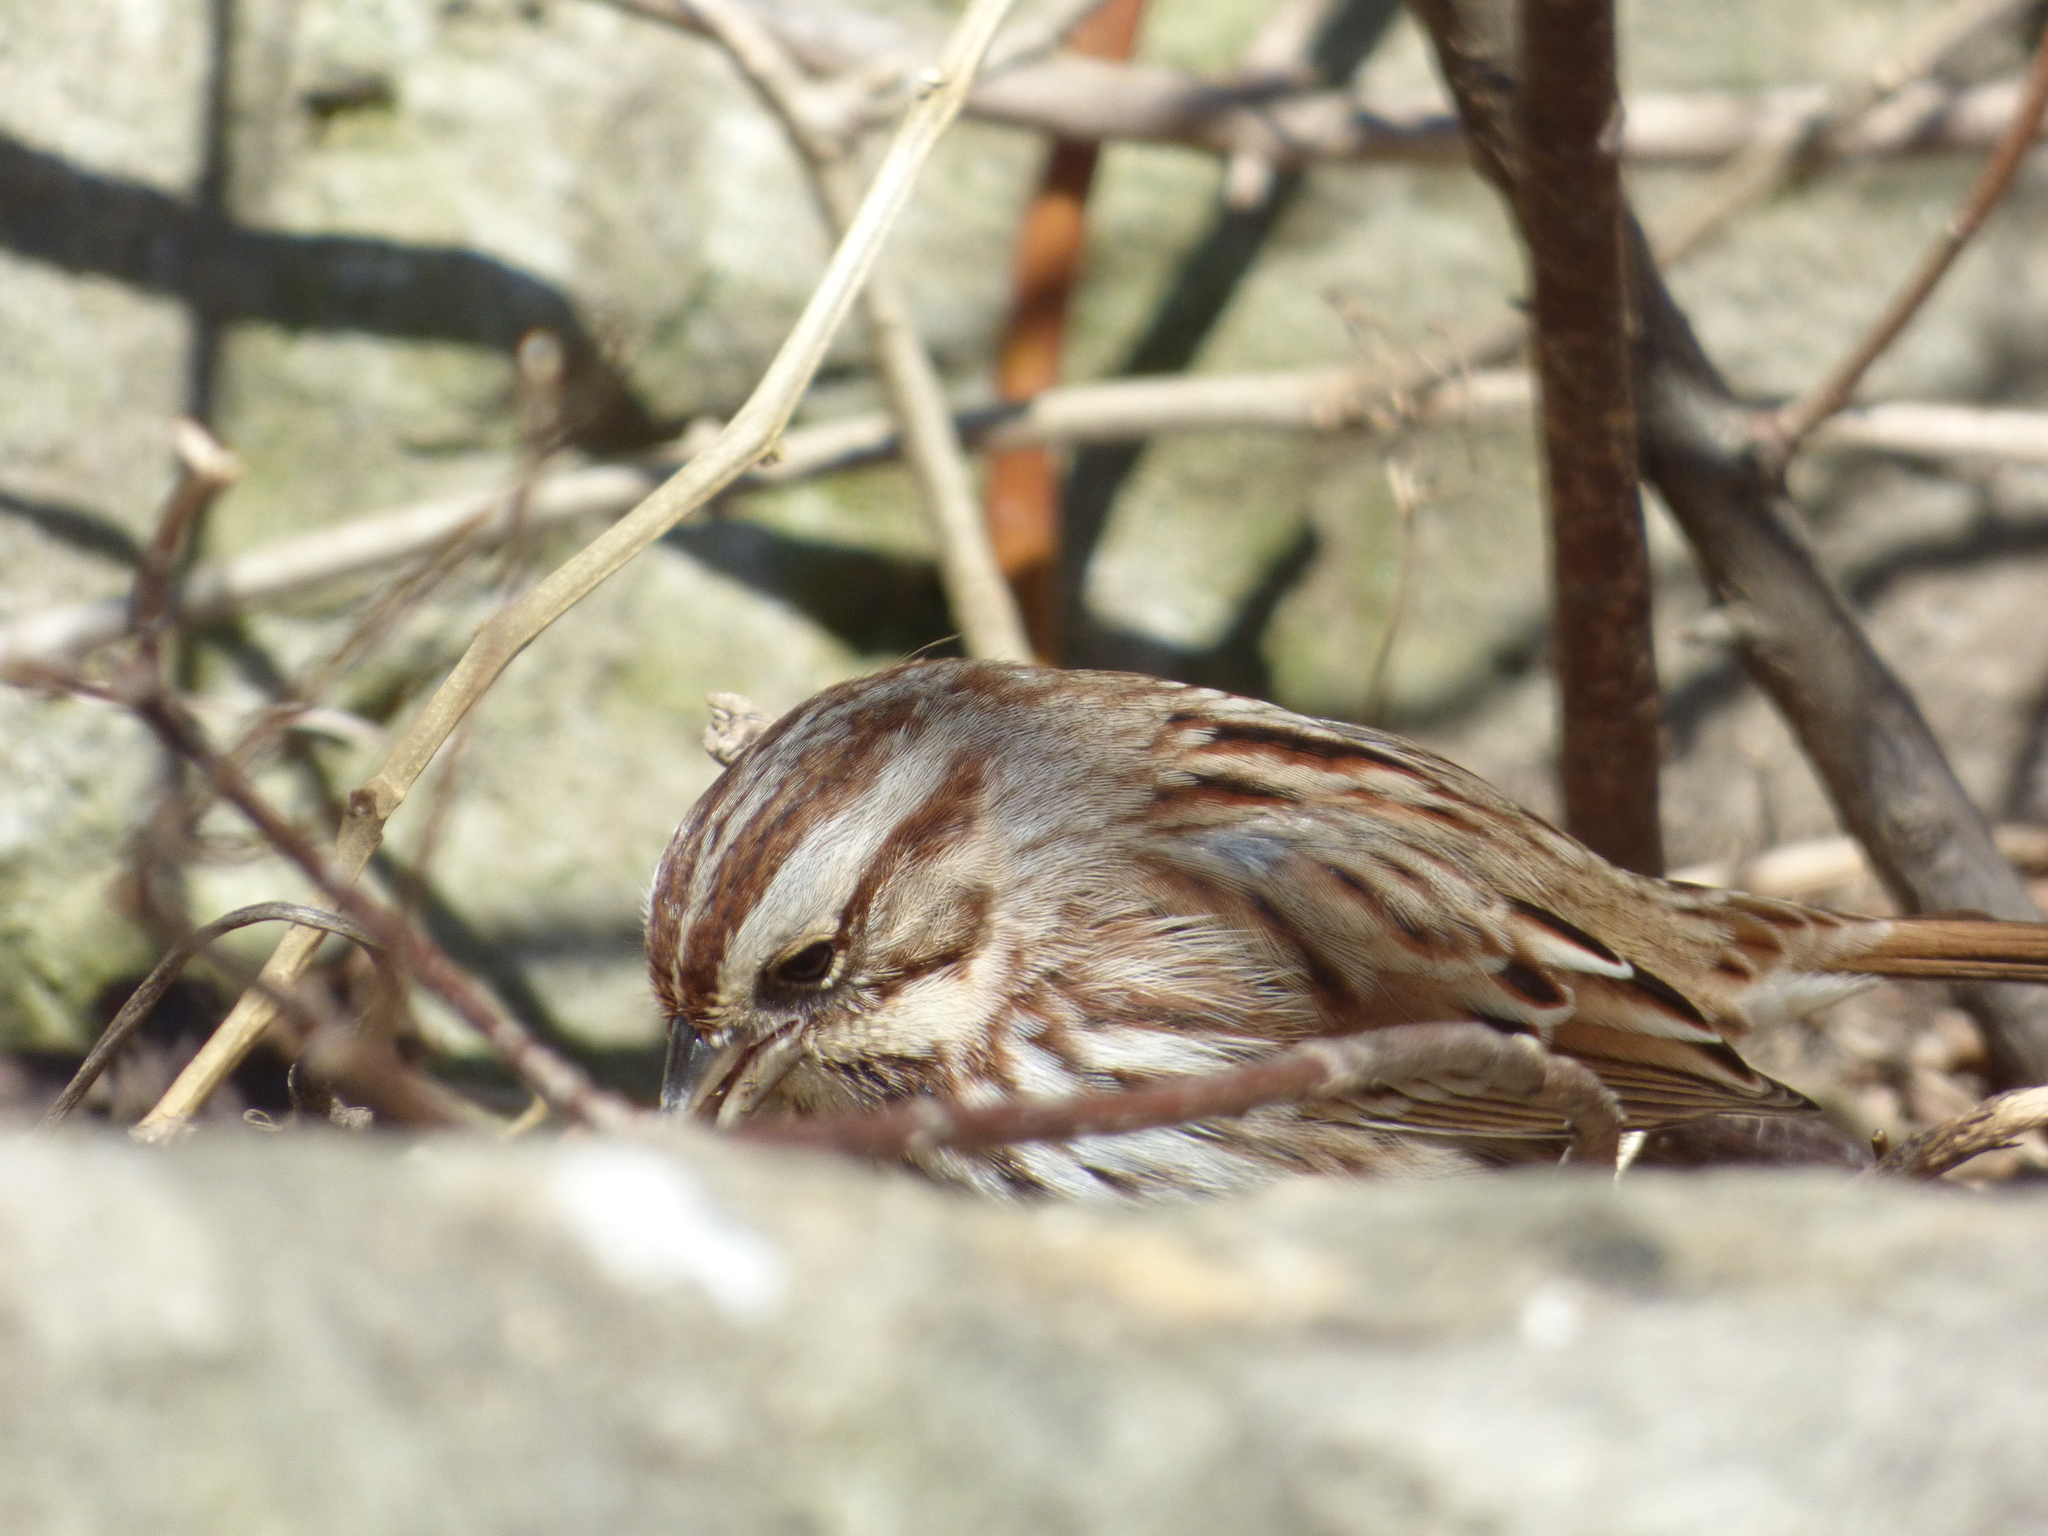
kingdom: Animalia
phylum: Chordata
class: Aves
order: Passeriformes
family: Passerellidae
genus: Melospiza
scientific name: Melospiza melodia
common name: Song sparrow
